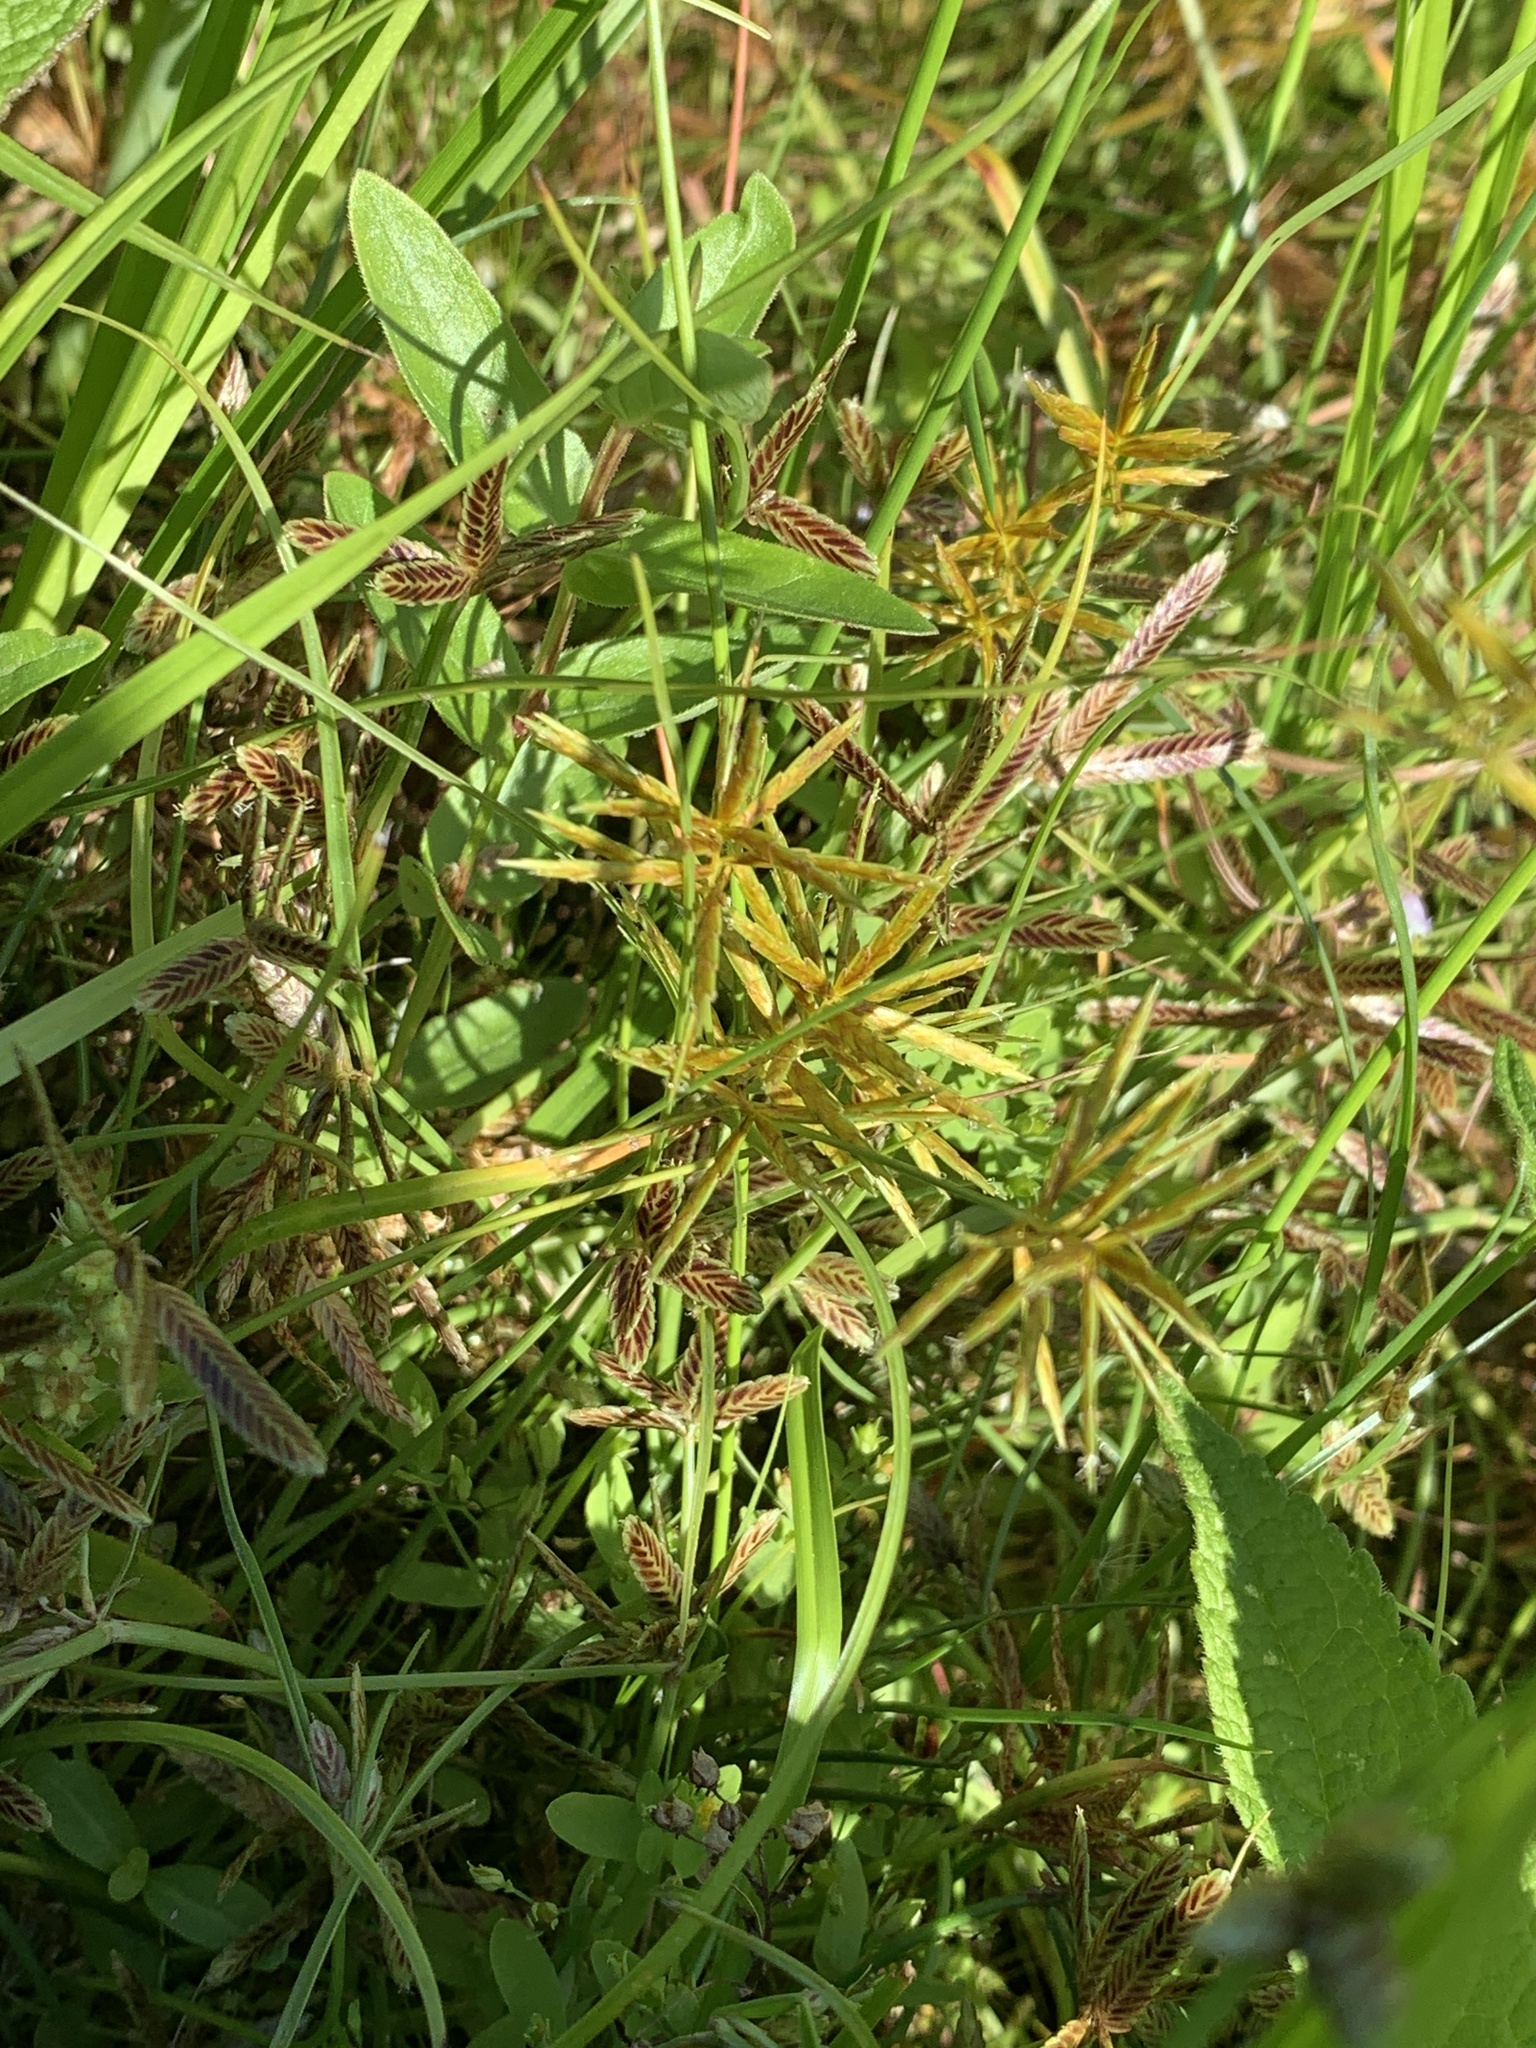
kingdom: Plantae
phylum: Tracheophyta
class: Liliopsida
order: Poales
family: Cyperaceae
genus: Cyperus
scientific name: Cyperus strigosus
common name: False nutsedge
